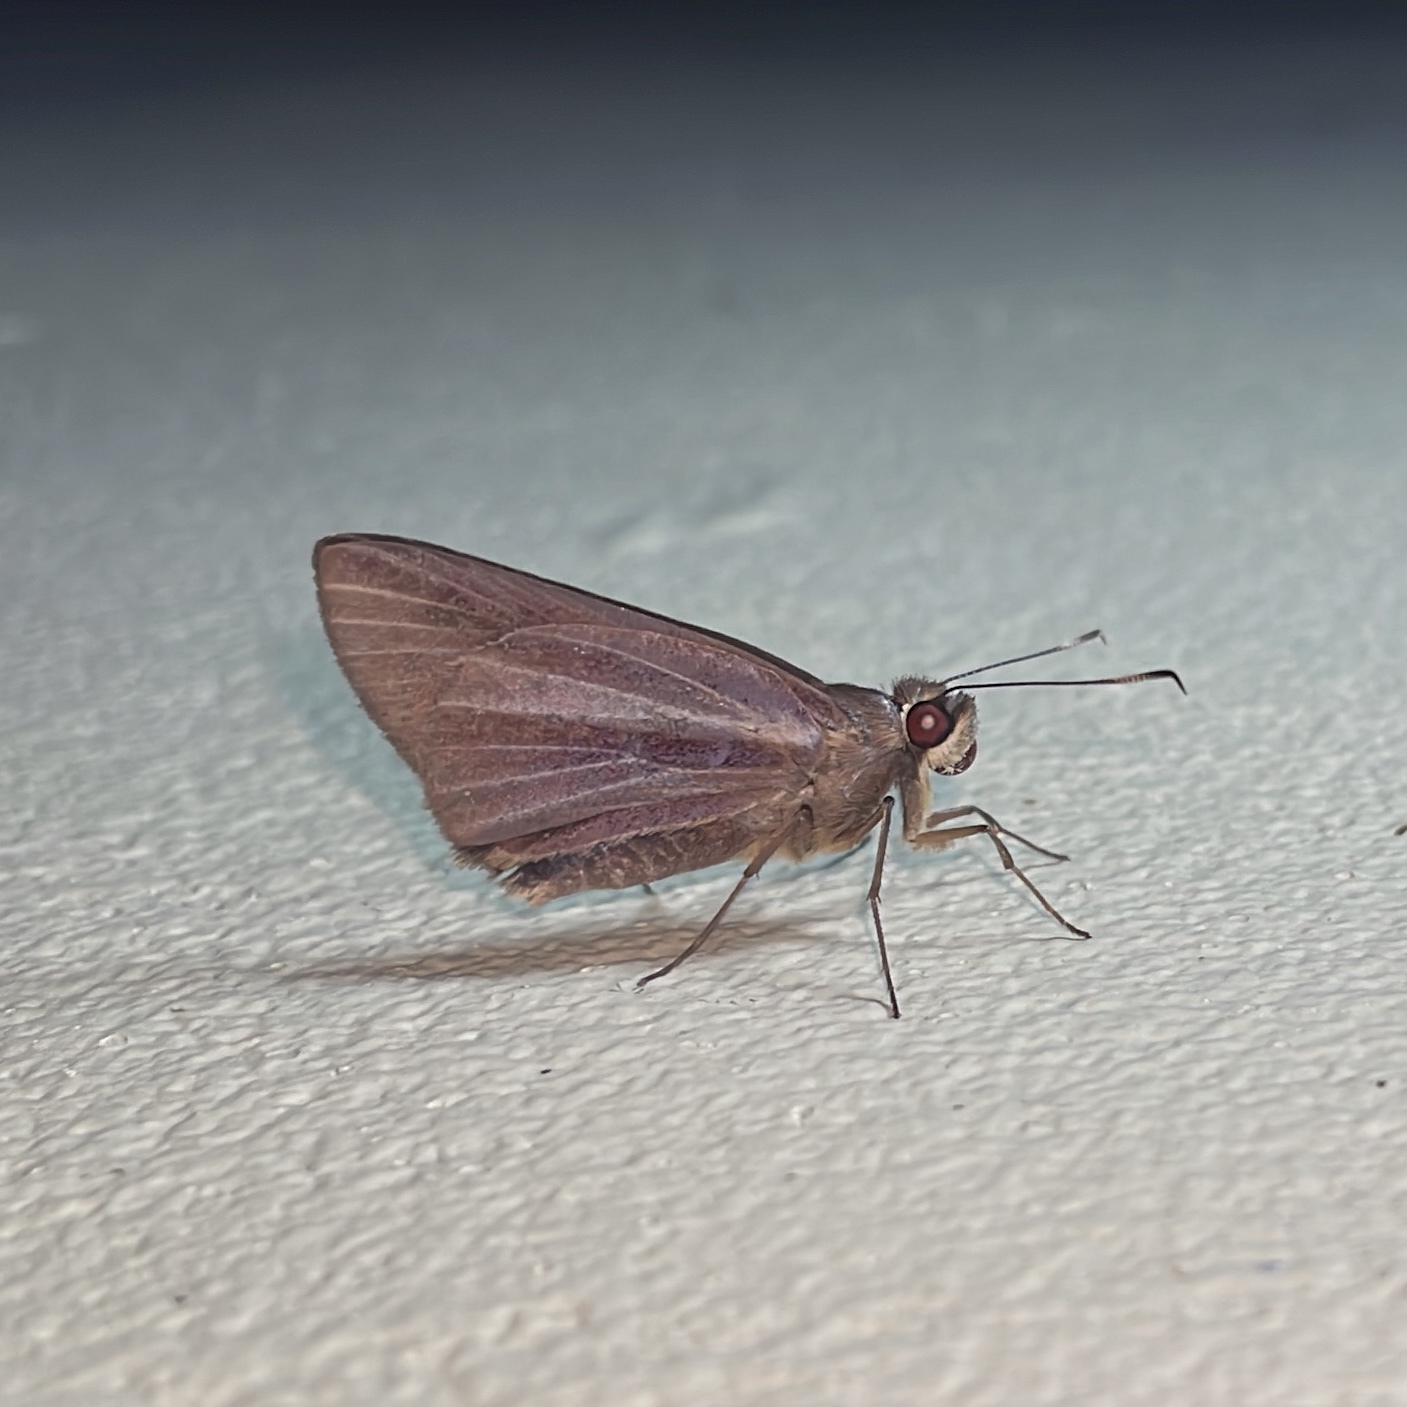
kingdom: Animalia
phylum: Arthropoda
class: Insecta
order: Lepidoptera
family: Hesperiidae
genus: Carystoides
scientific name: Carystoides cathaea
